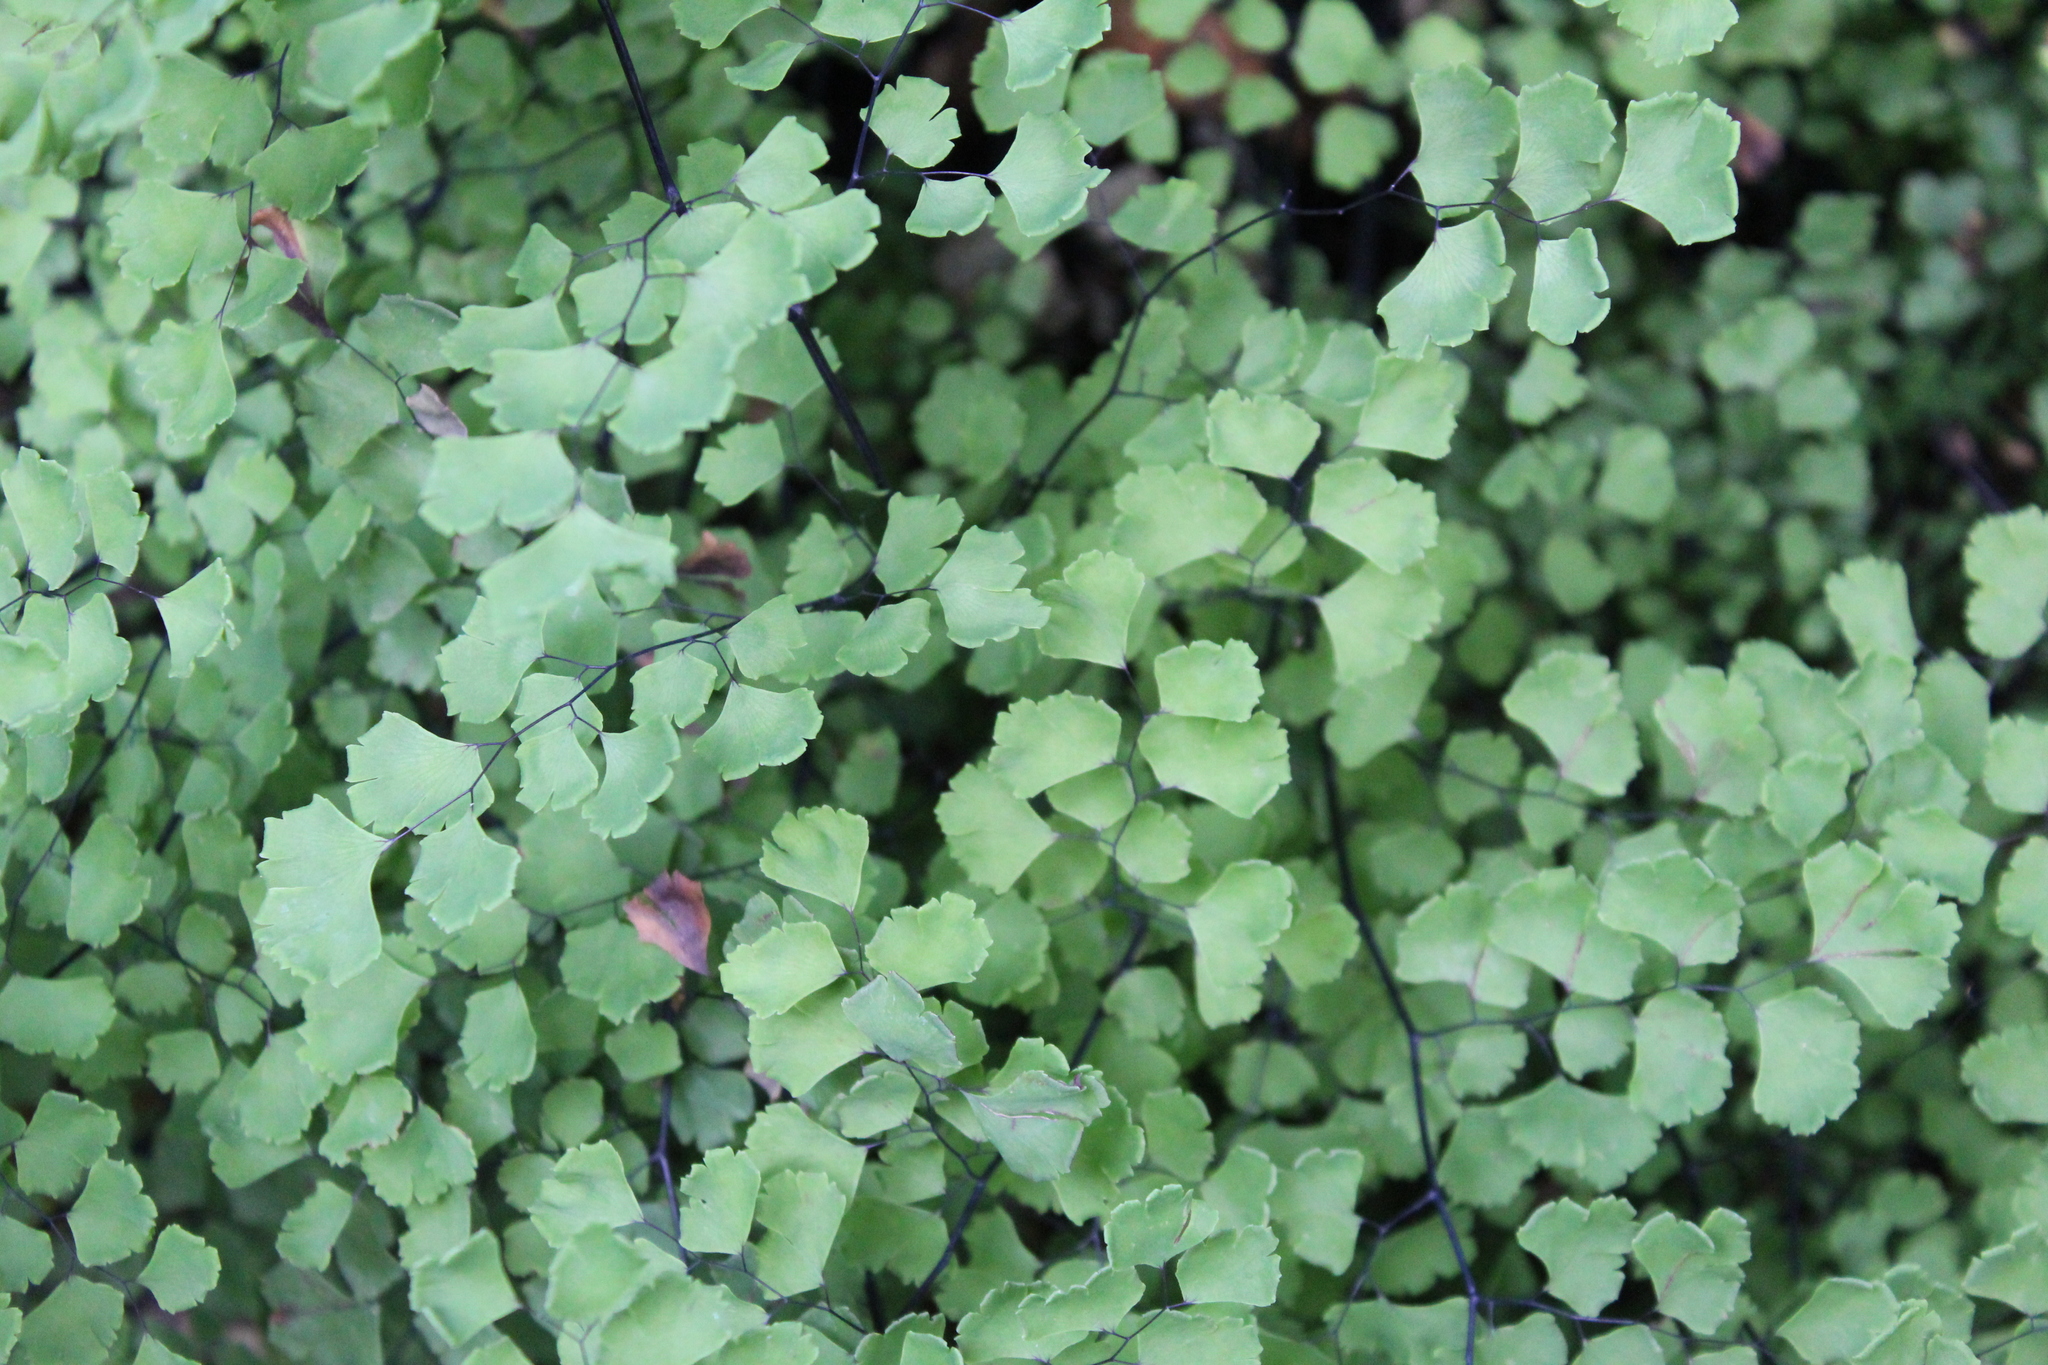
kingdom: Plantae
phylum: Tracheophyta
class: Polypodiopsida
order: Polypodiales
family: Pteridaceae
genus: Adiantum
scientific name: Adiantum capillus-veneris
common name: Maidenhair fern
